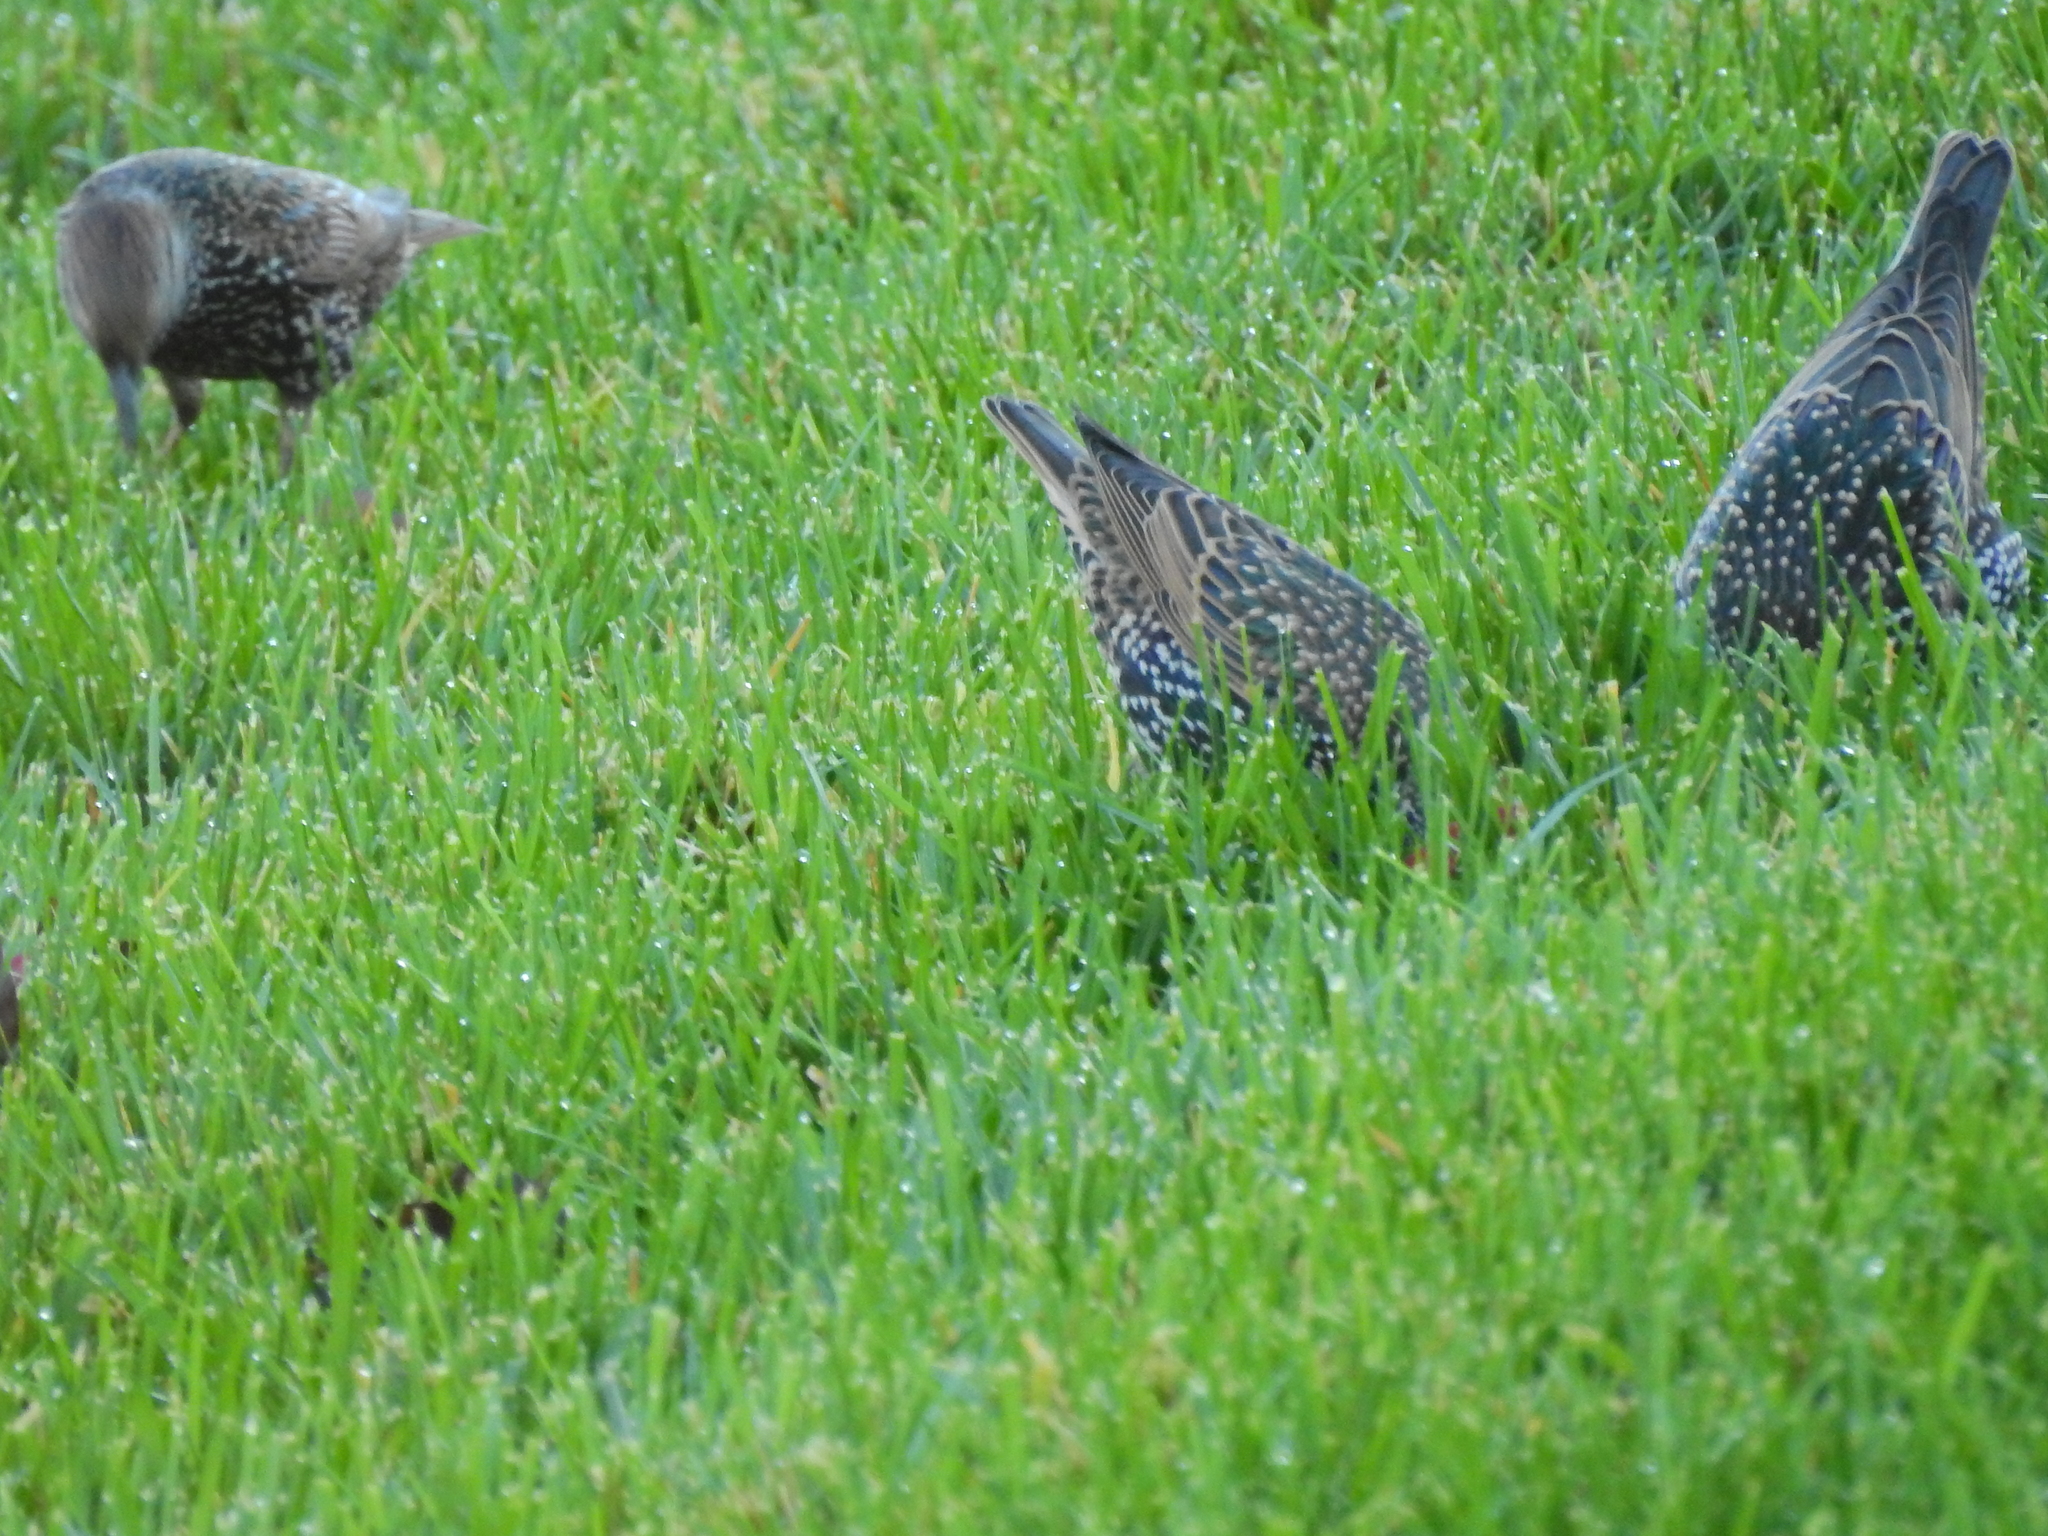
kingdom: Animalia
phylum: Chordata
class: Aves
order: Passeriformes
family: Sturnidae
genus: Sturnus
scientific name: Sturnus vulgaris
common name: Common starling
